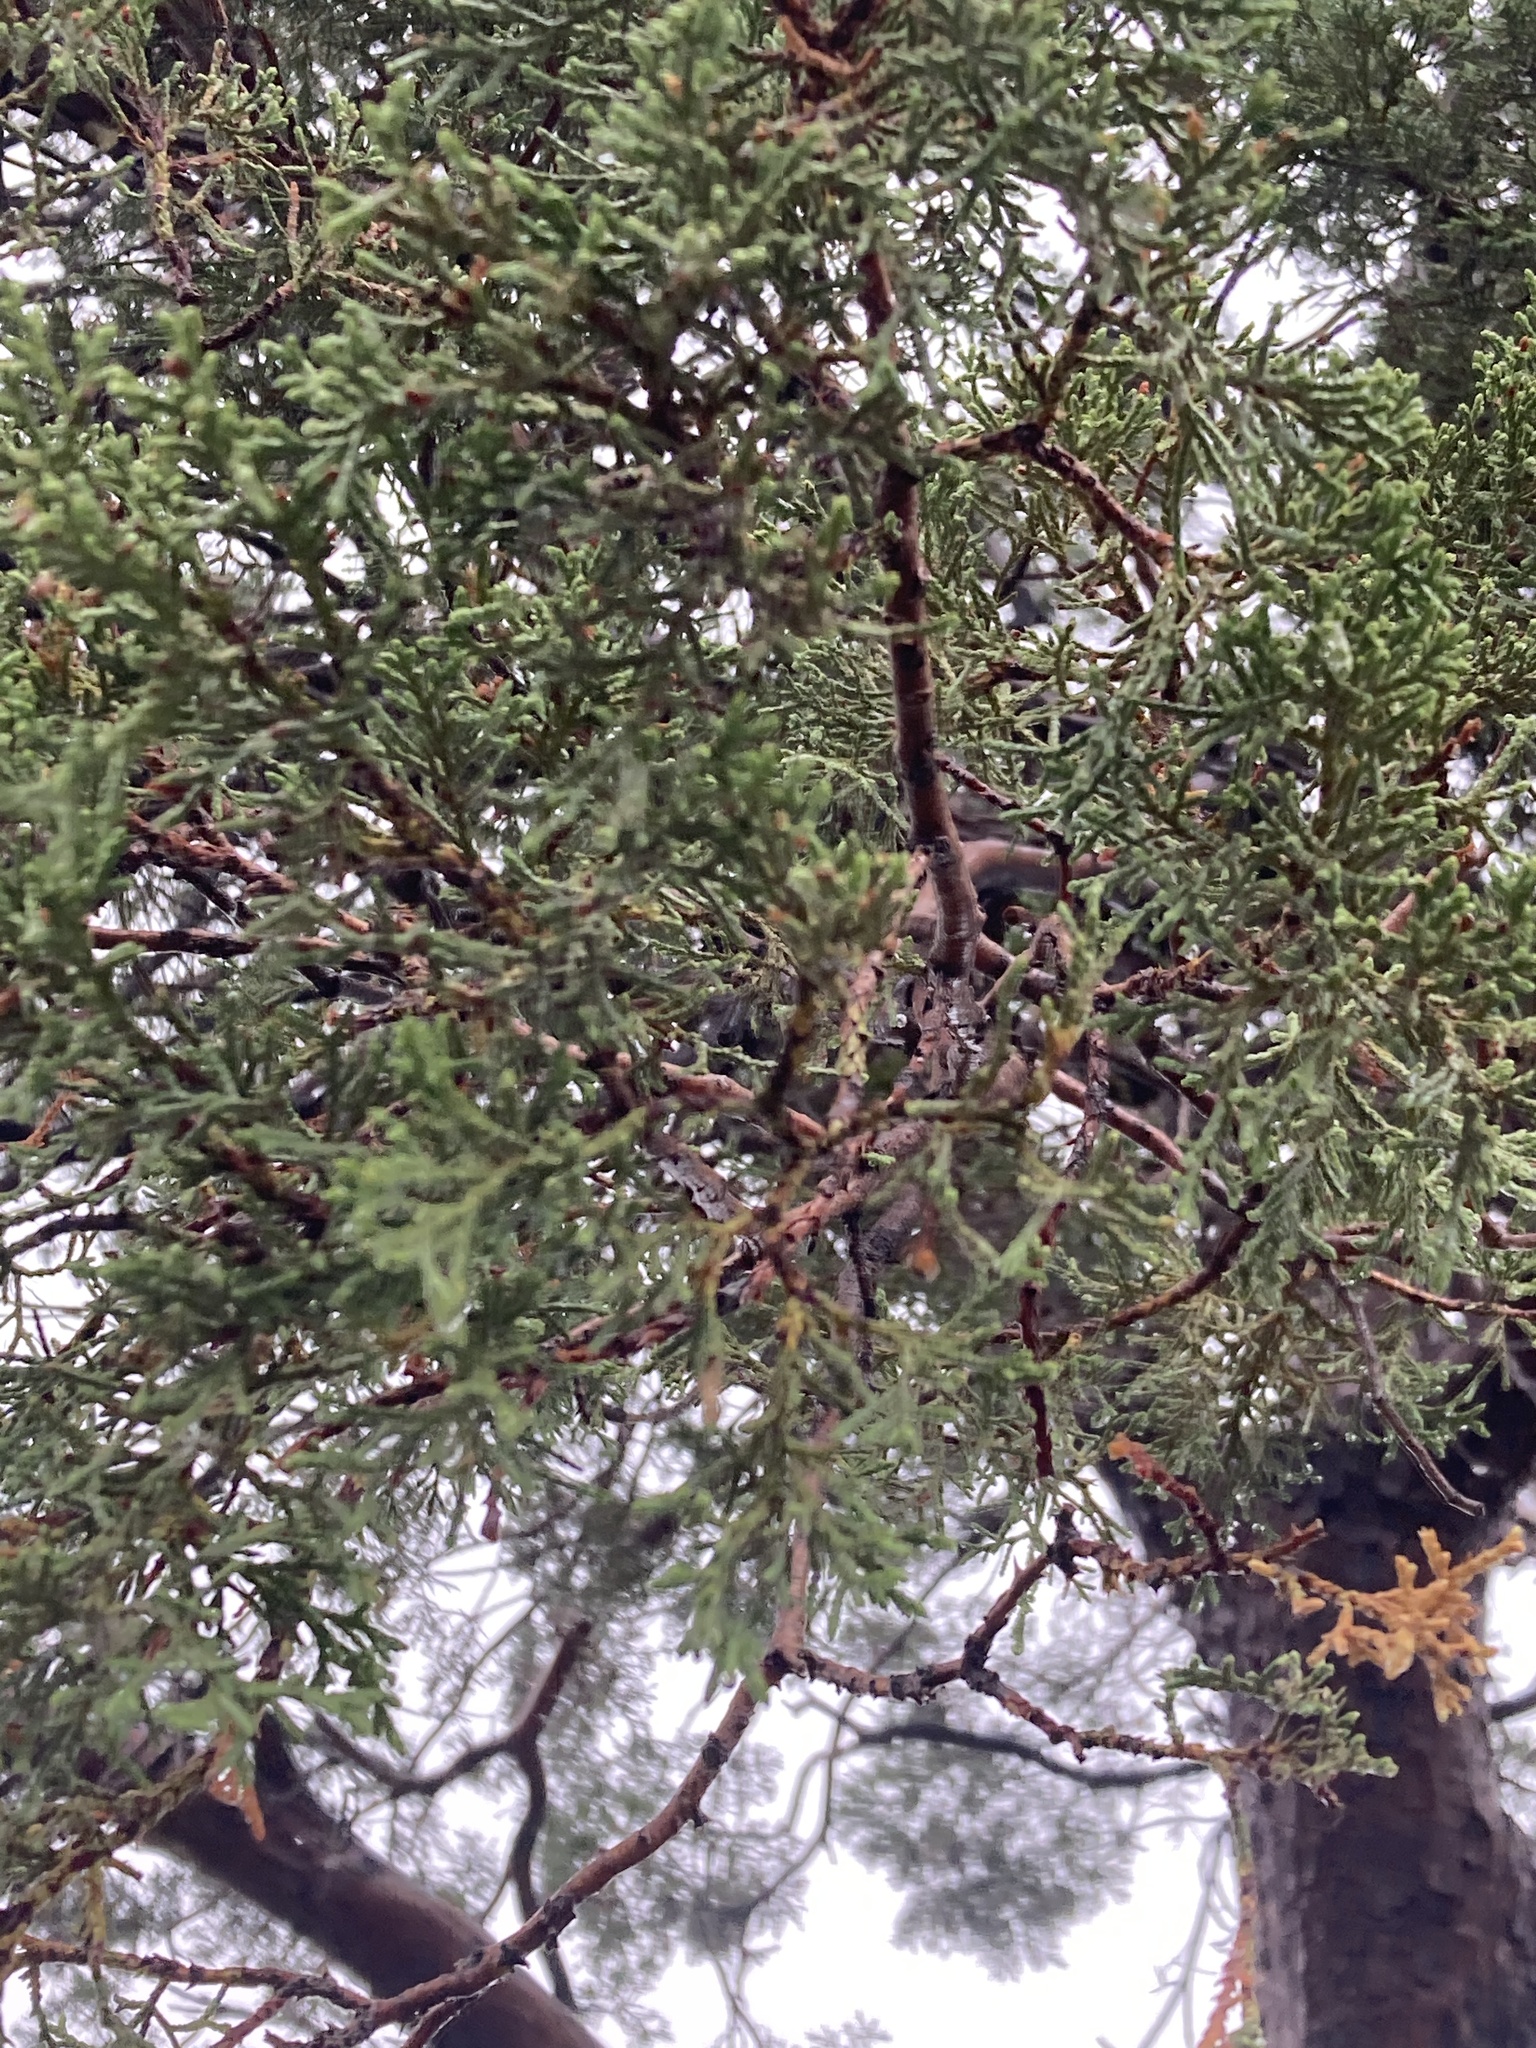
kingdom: Plantae
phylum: Tracheophyta
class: Pinopsida
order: Pinales
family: Cupressaceae
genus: Juniperus
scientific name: Juniperus deppeana
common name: Alligator juniper
